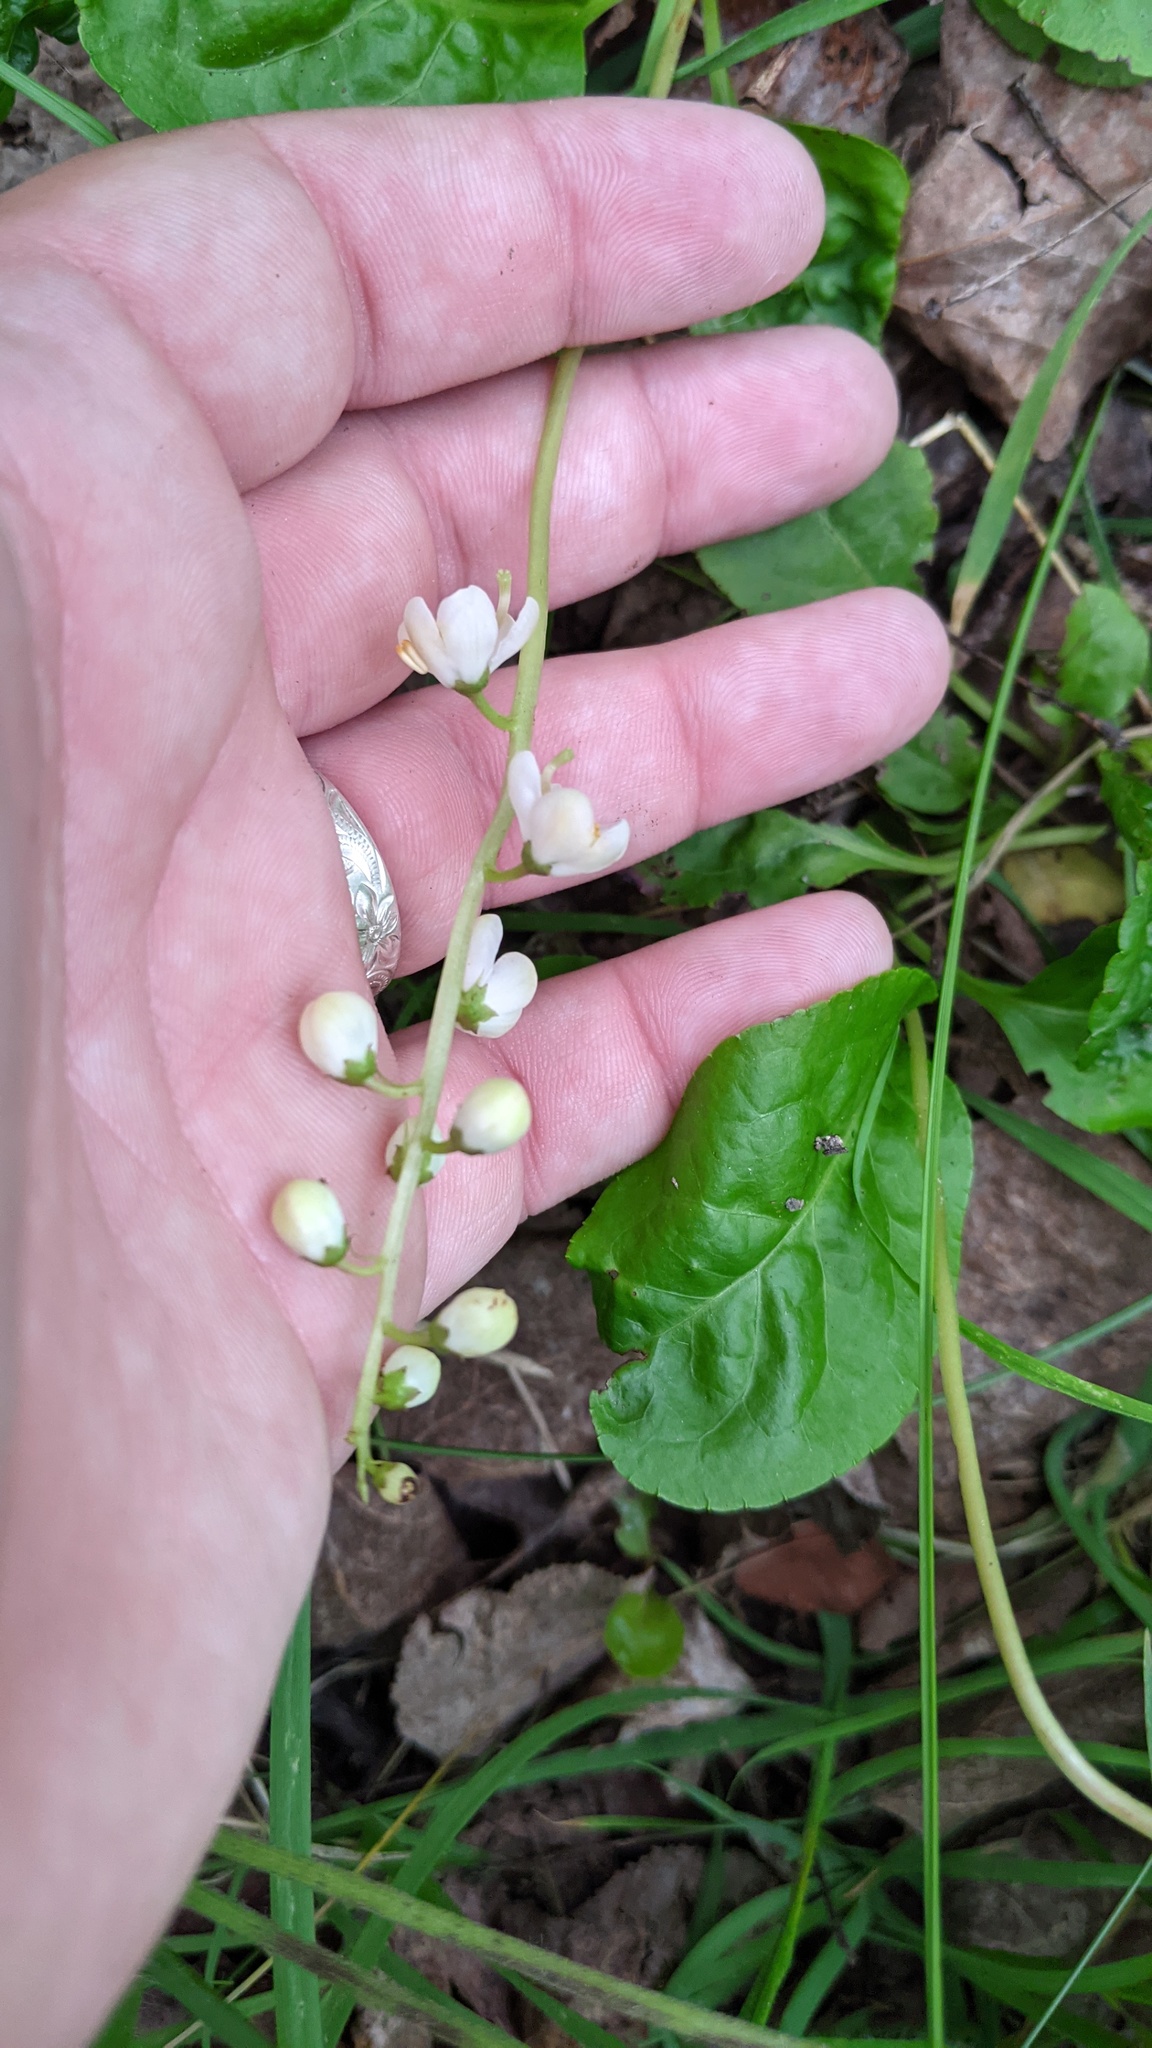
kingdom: Plantae
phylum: Tracheophyta
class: Magnoliopsida
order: Ericales
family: Ericaceae
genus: Pyrola
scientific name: Pyrola elliptica
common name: Shinleaf
